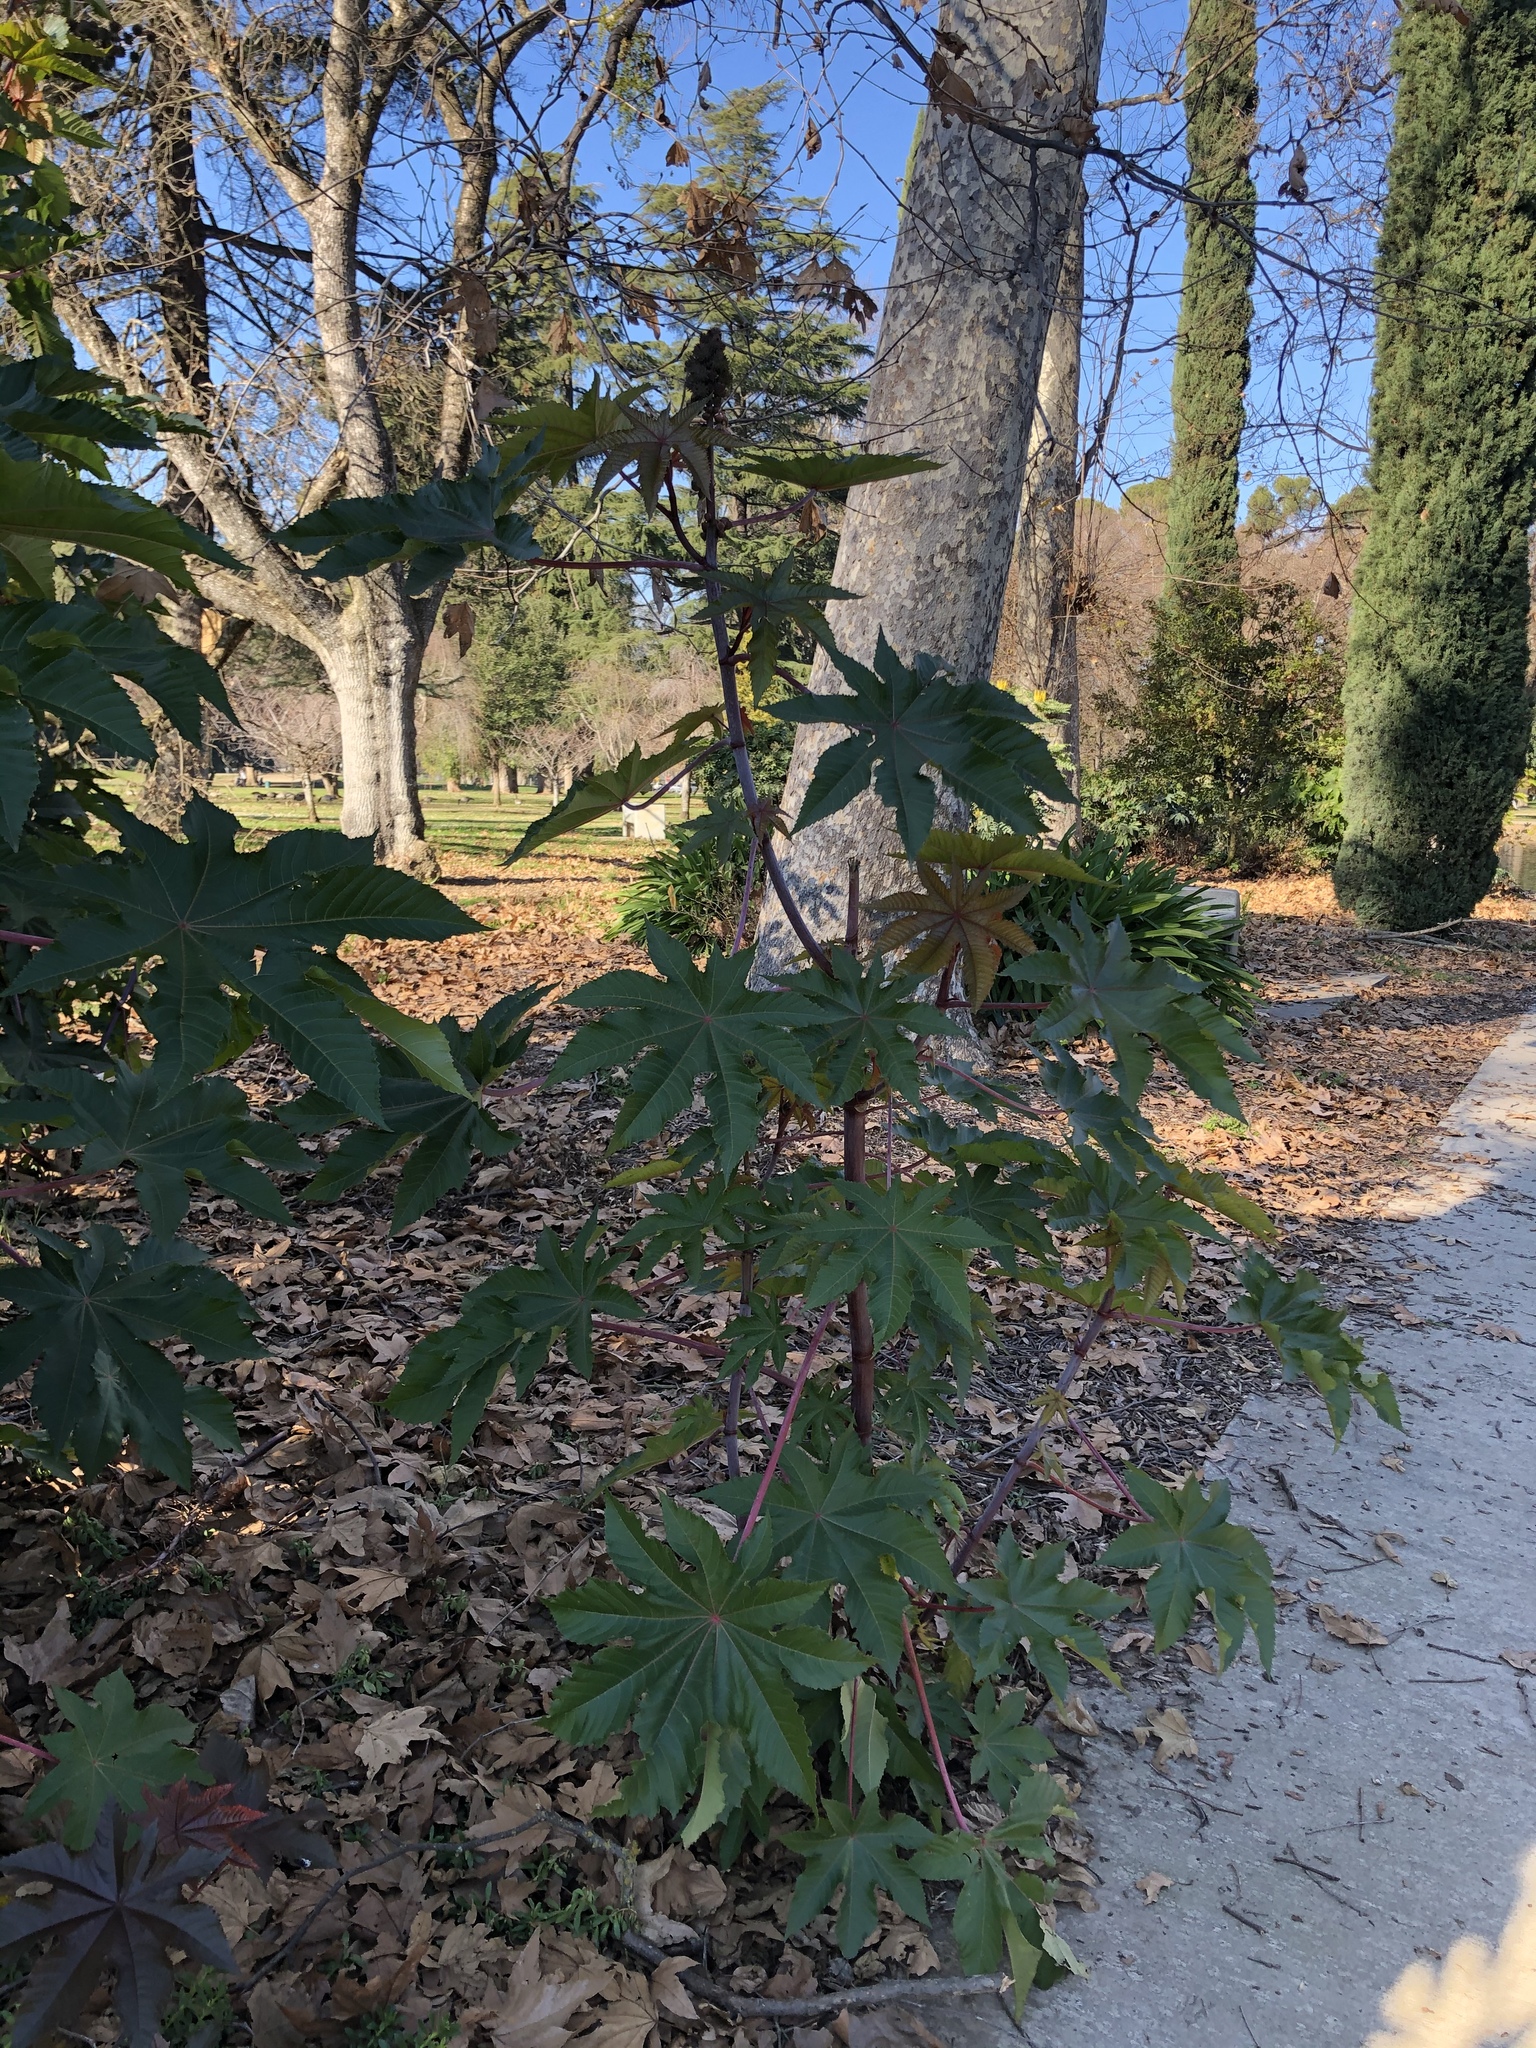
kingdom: Plantae
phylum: Tracheophyta
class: Magnoliopsida
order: Malpighiales
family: Euphorbiaceae
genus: Ricinus
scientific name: Ricinus communis
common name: Castor-oil-plant
